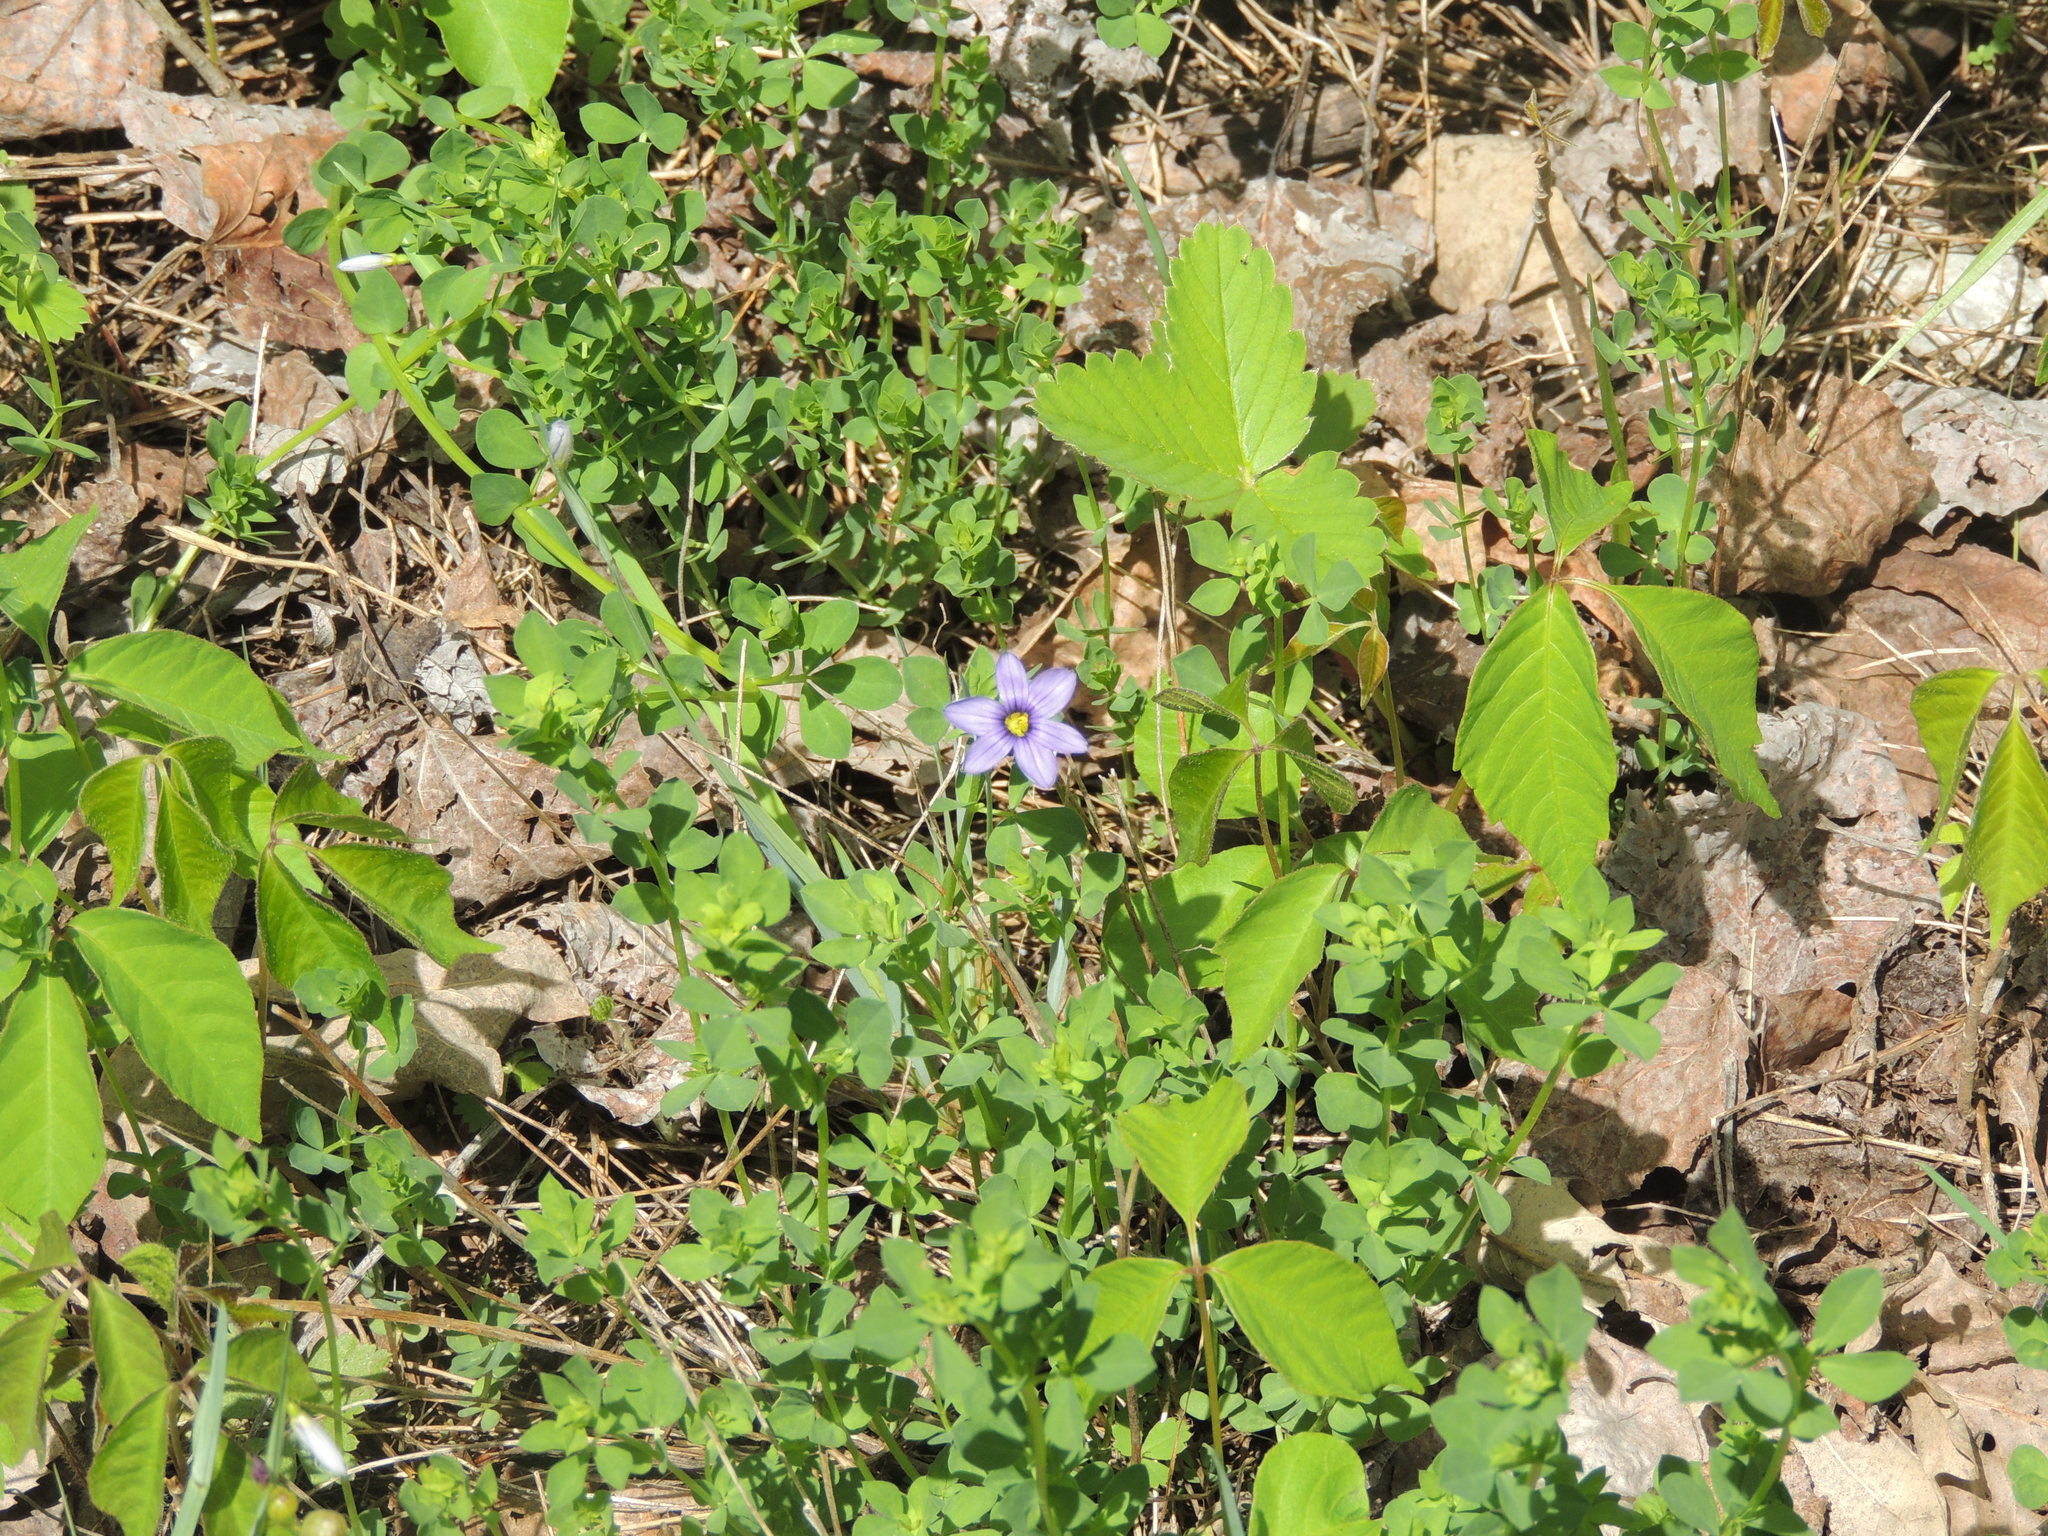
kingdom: Plantae
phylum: Tracheophyta
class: Liliopsida
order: Asparagales
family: Iridaceae
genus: Sisyrinchium
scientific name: Sisyrinchium montanum
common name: American blue-eyed-grass
